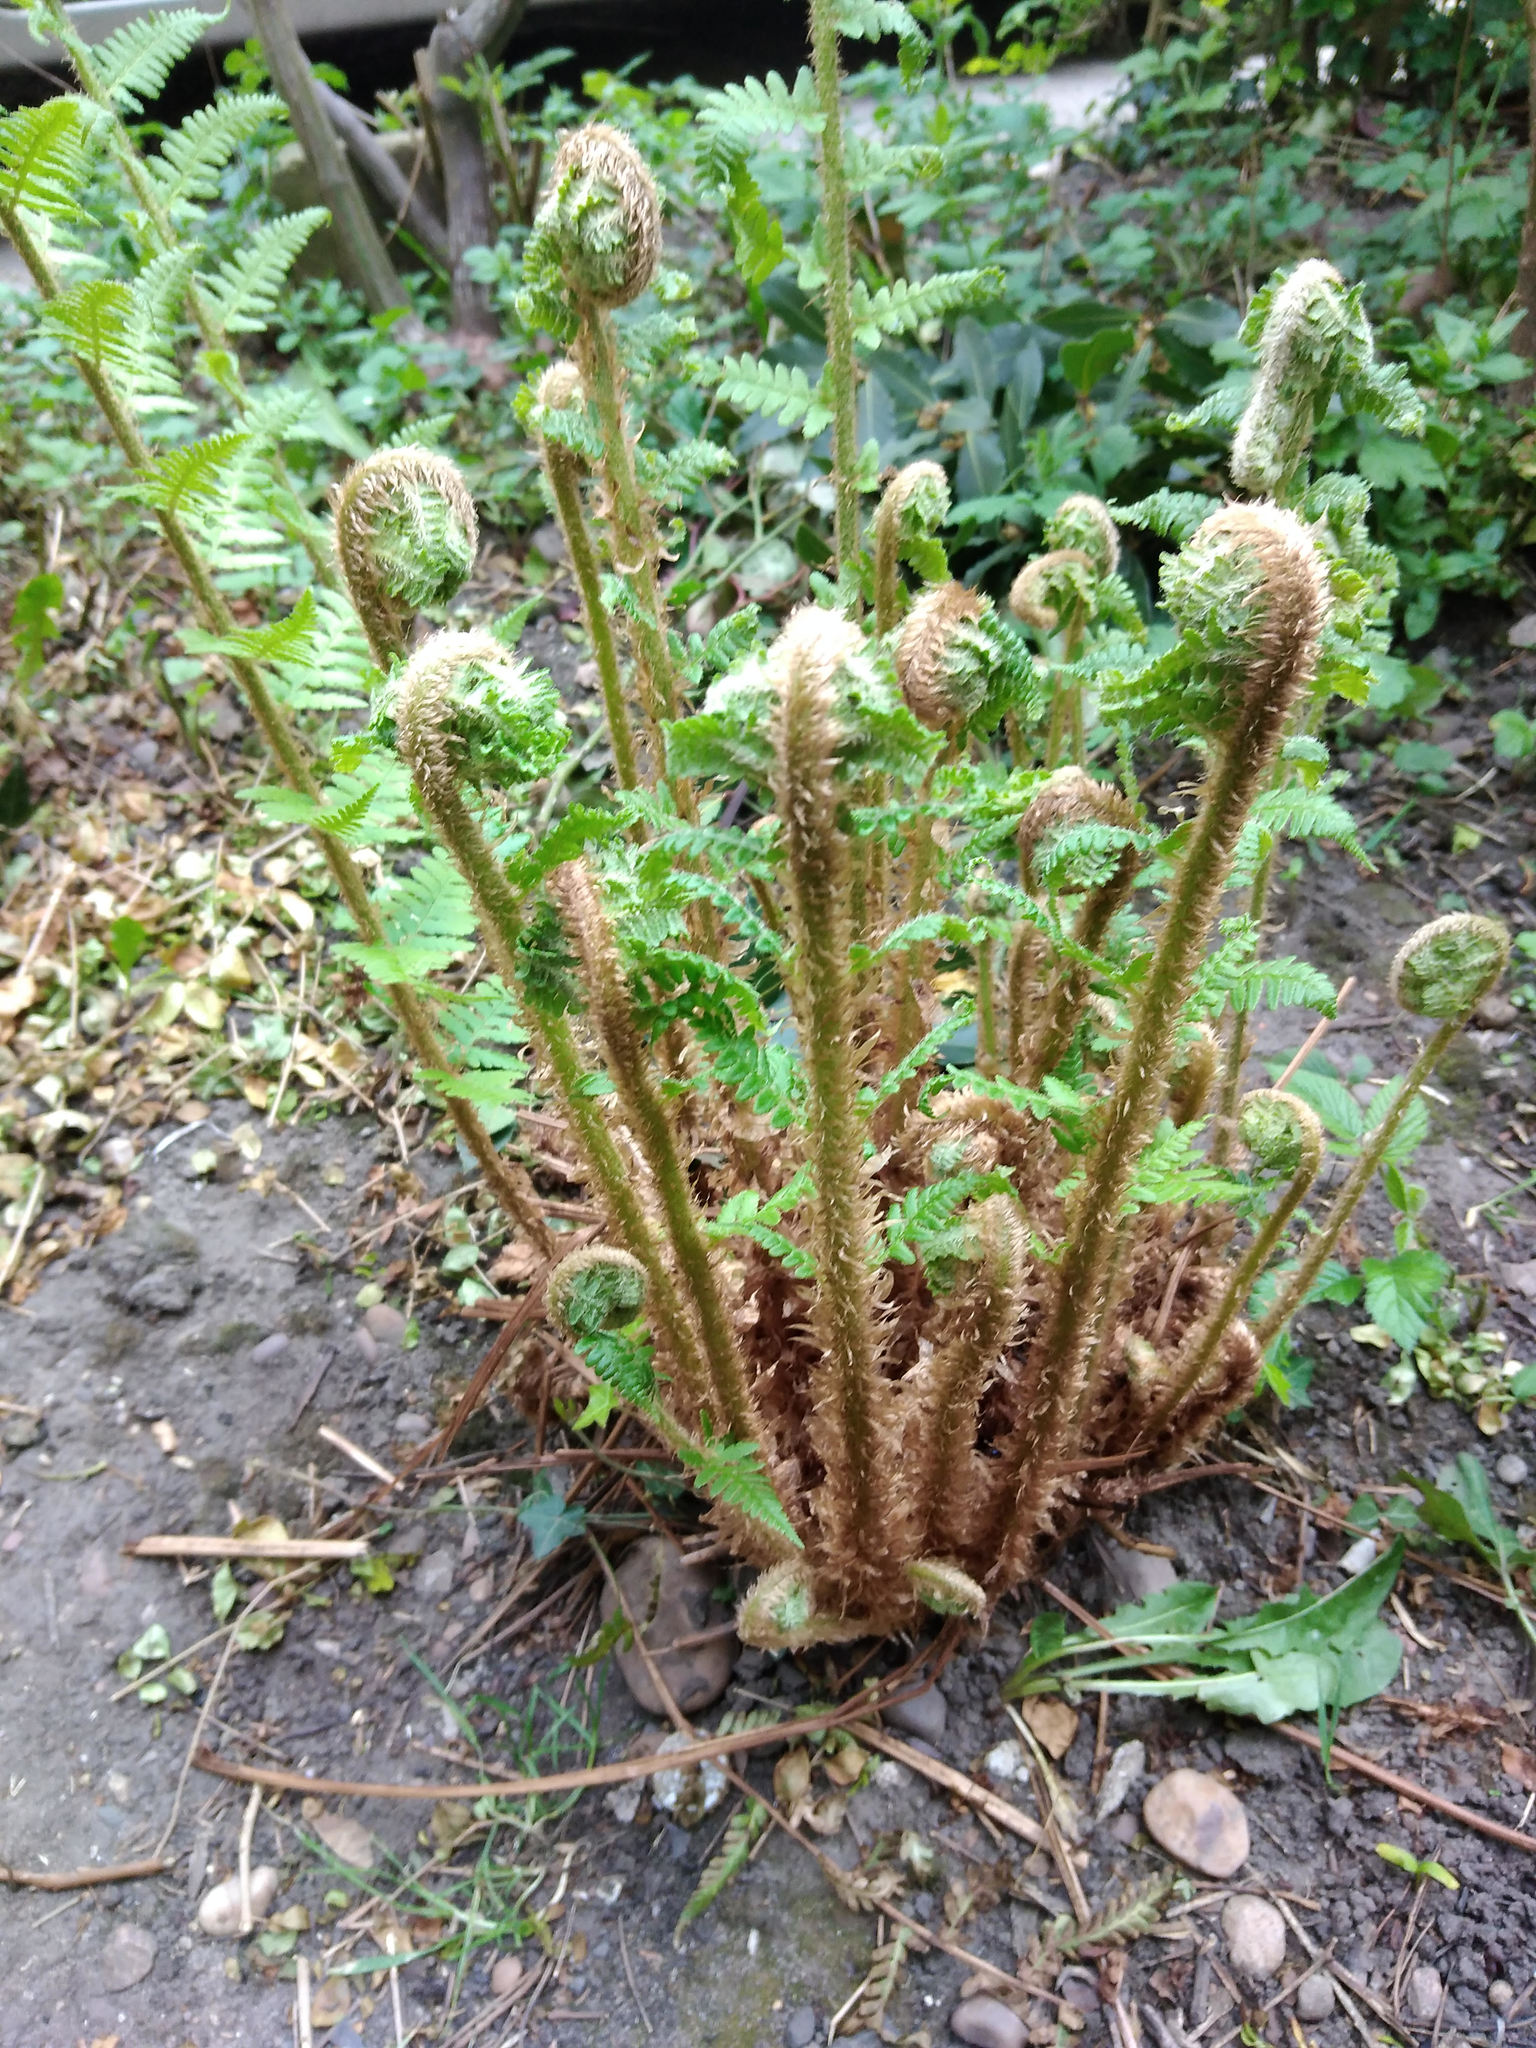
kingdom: Plantae
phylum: Tracheophyta
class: Polypodiopsida
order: Polypodiales
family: Dryopteridaceae
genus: Dryopteris
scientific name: Dryopteris filix-mas
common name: Male fern
